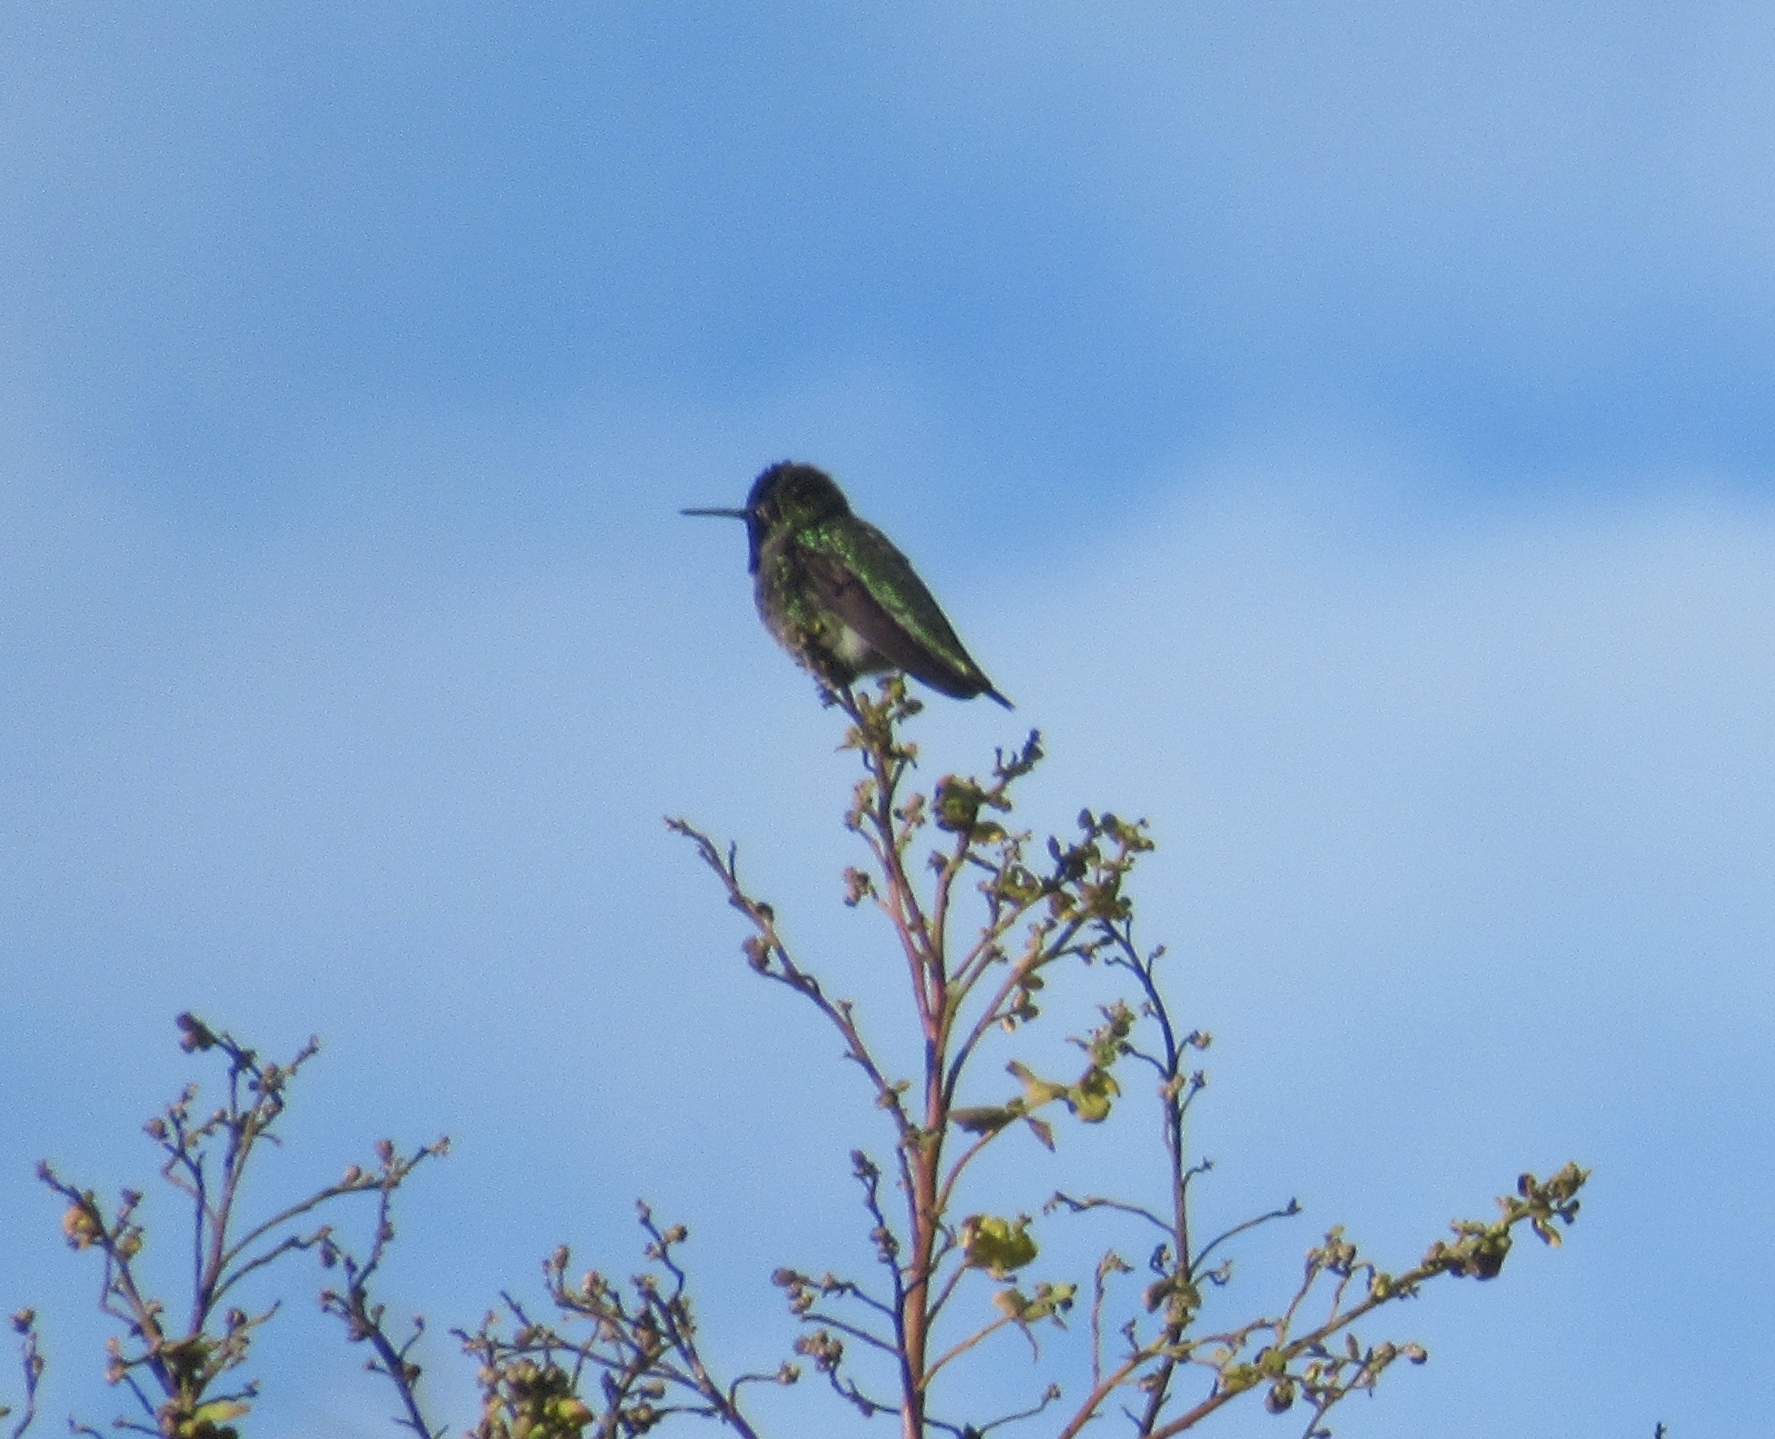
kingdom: Animalia
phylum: Chordata
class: Aves
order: Apodiformes
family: Trochilidae
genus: Calypte
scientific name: Calypte anna
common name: Anna's hummingbird
